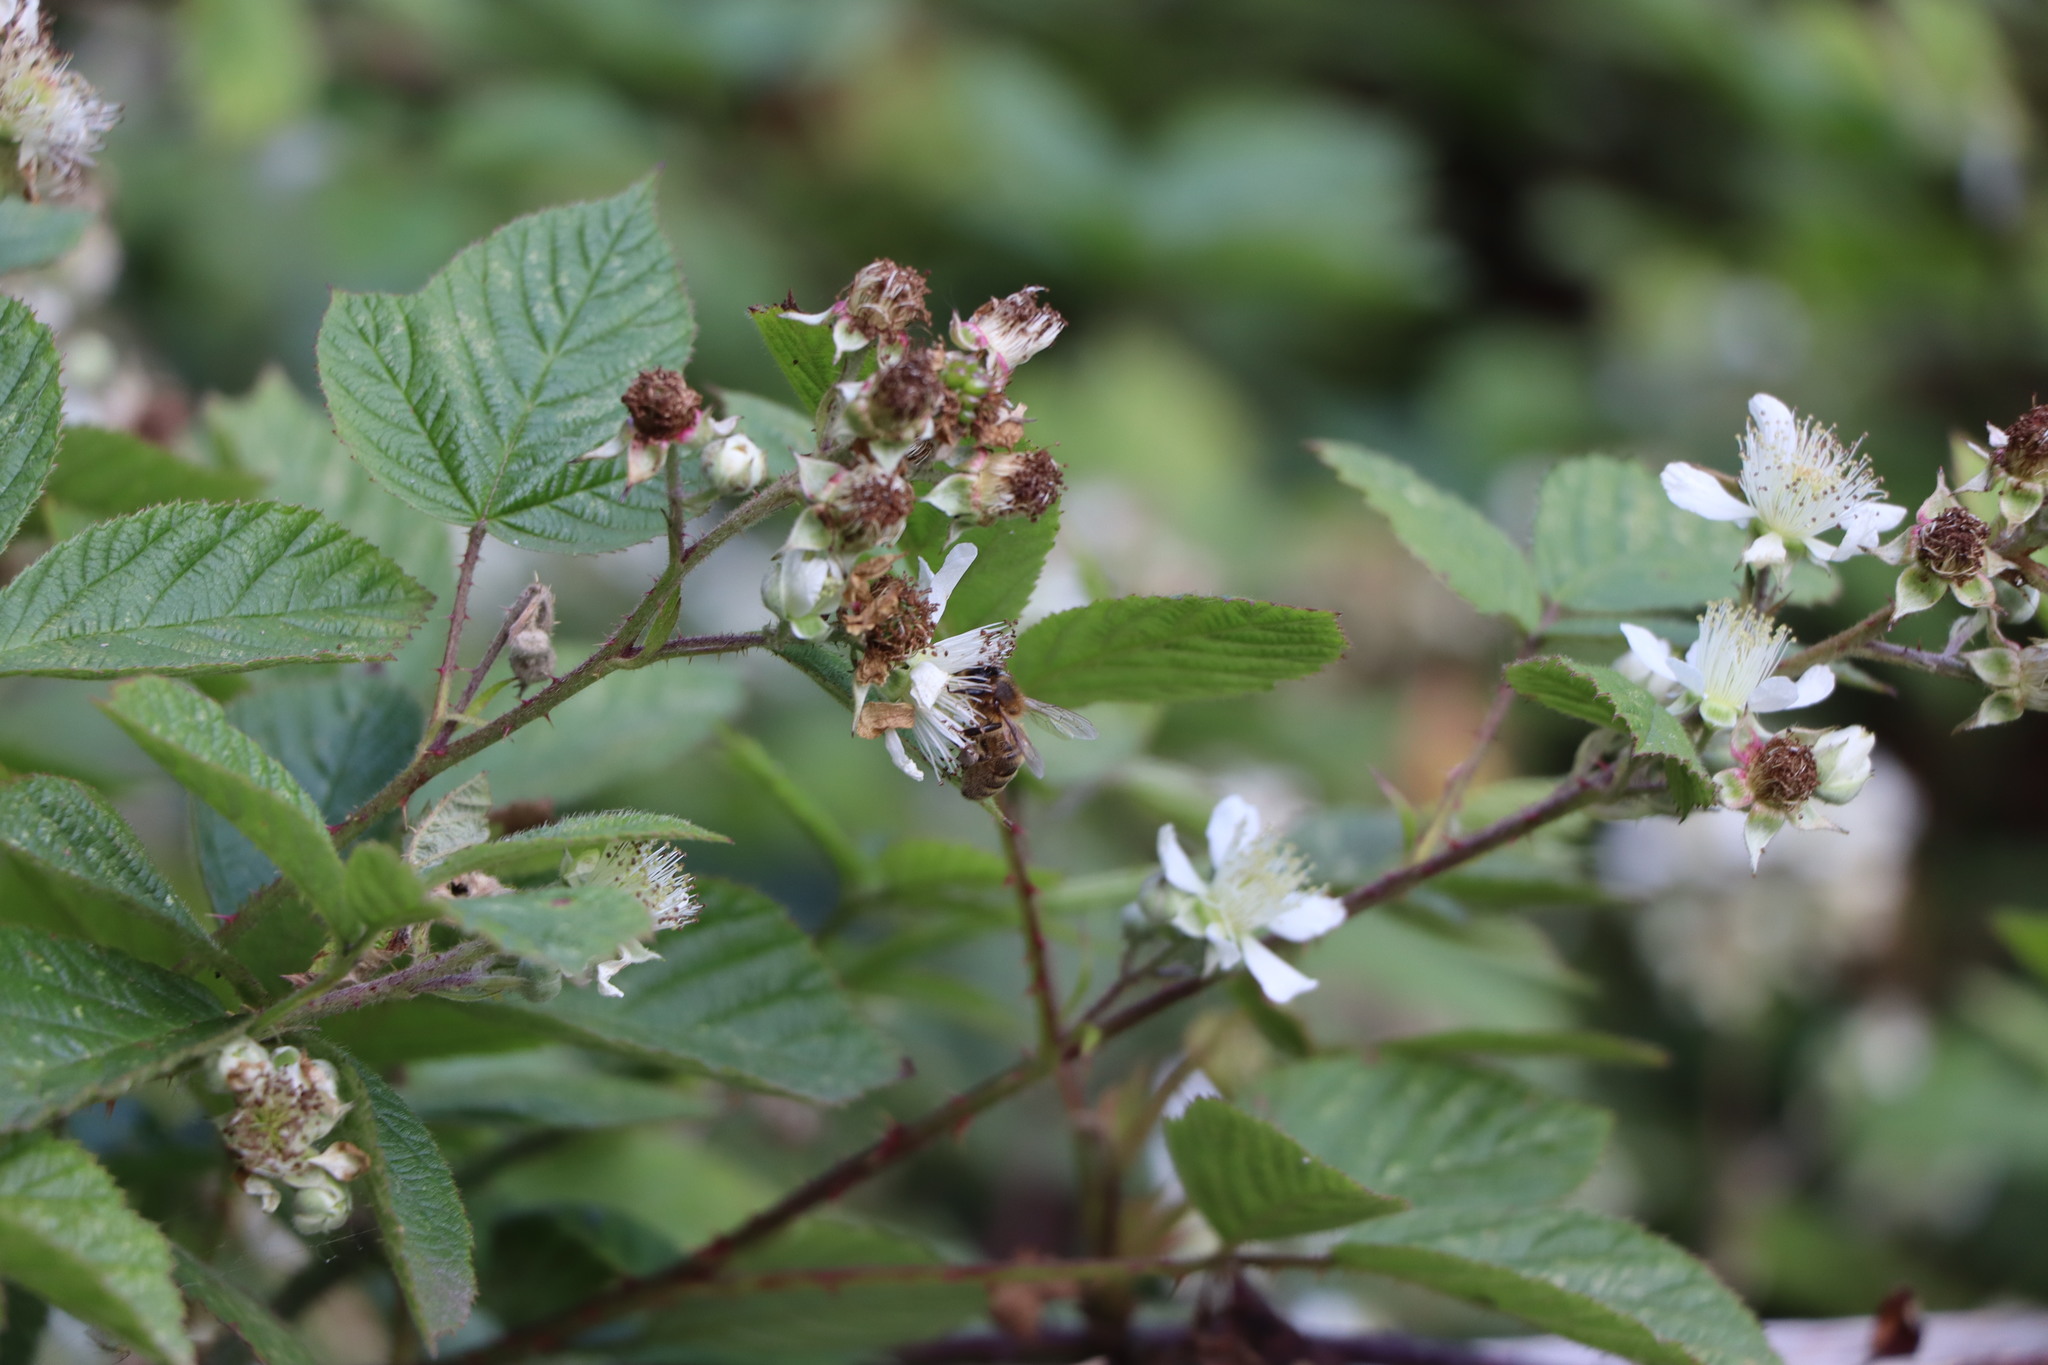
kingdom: Animalia
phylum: Arthropoda
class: Insecta
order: Hymenoptera
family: Apidae
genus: Apis
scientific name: Apis mellifera
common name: Honey bee
